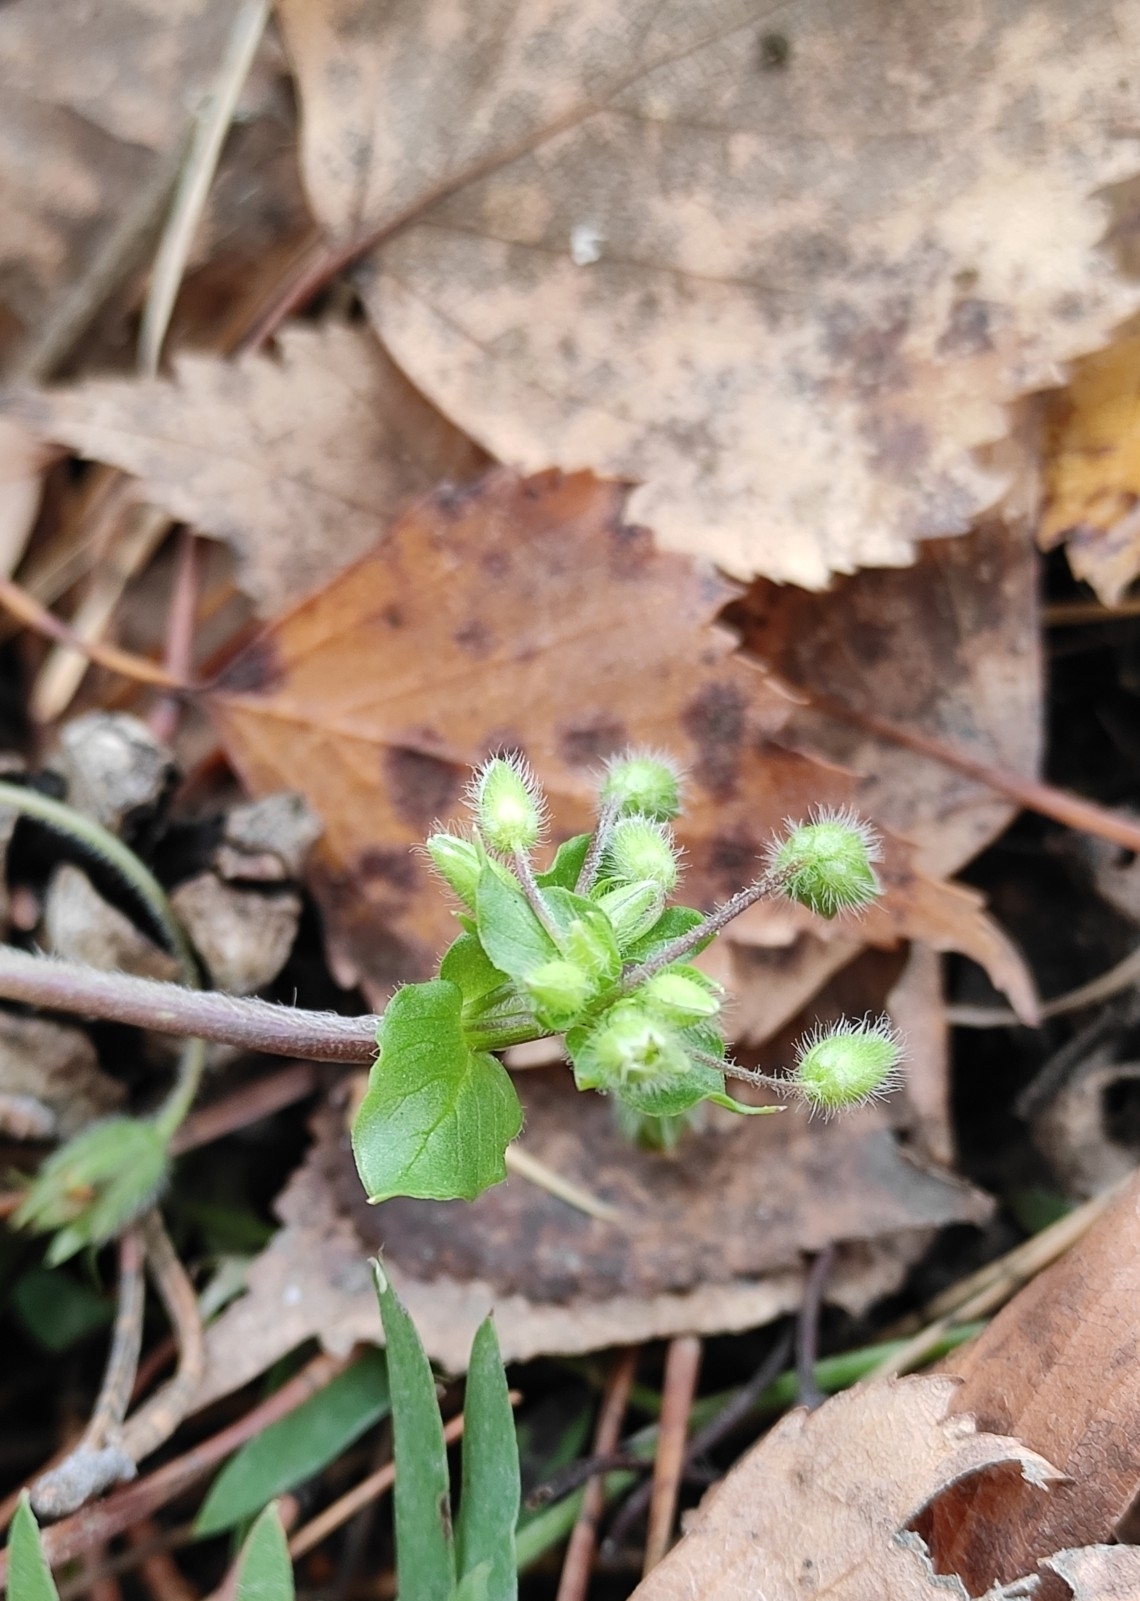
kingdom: Plantae
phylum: Tracheophyta
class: Magnoliopsida
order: Caryophyllales
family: Caryophyllaceae
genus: Stellaria
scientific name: Stellaria media
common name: Common chickweed
